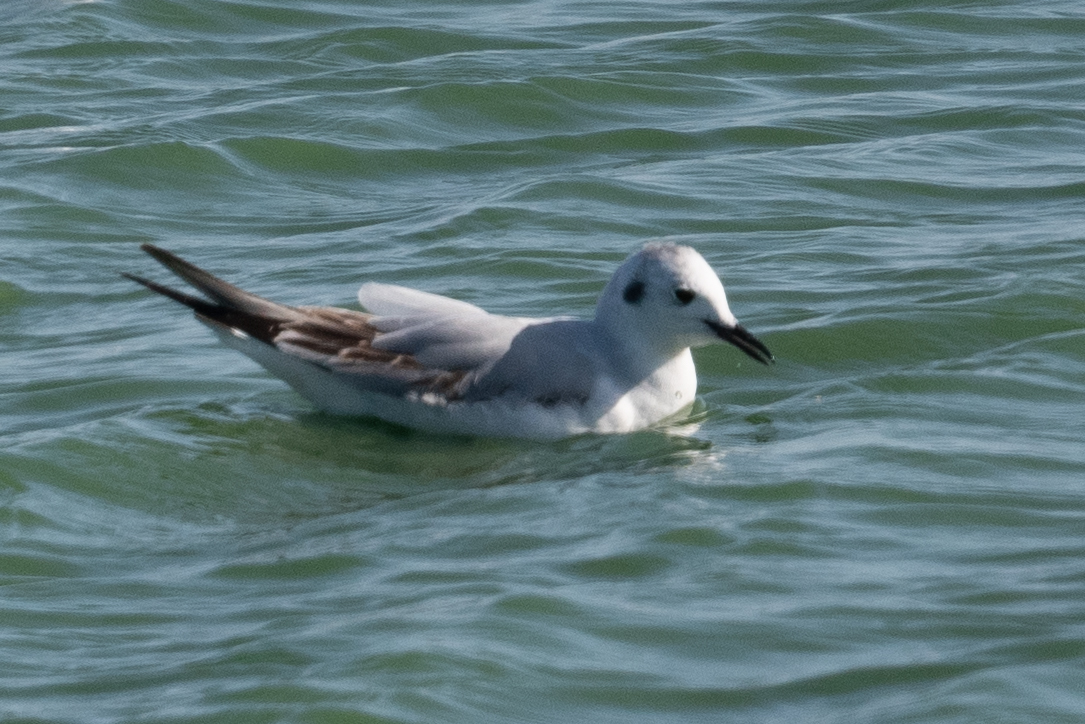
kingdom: Animalia
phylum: Chordata
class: Aves
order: Charadriiformes
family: Laridae
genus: Chroicocephalus
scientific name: Chroicocephalus philadelphia
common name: Bonaparte's gull
